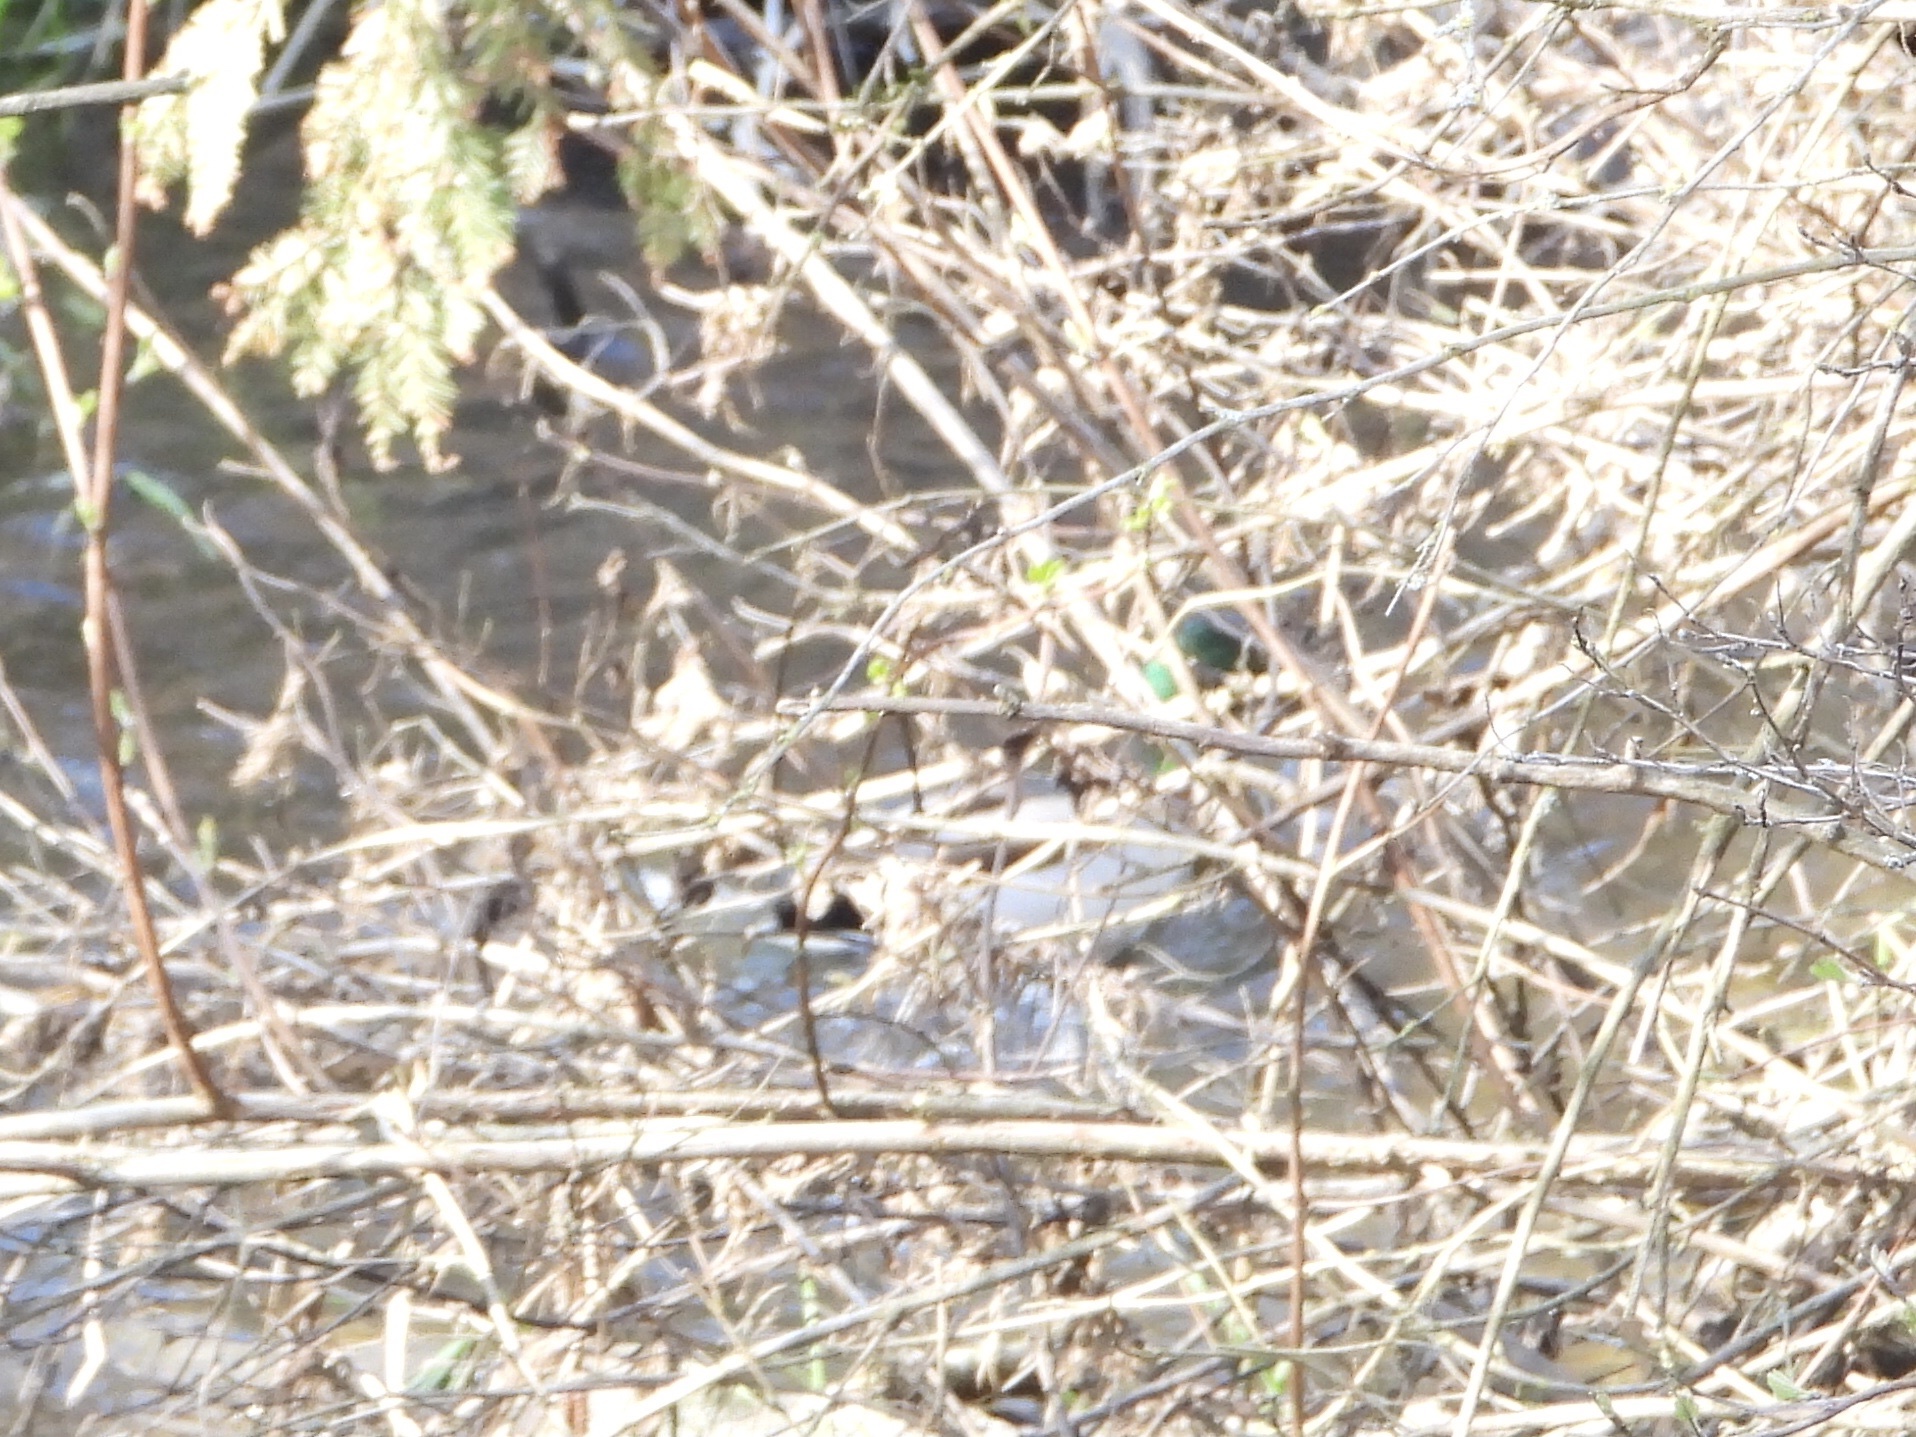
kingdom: Animalia
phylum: Chordata
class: Aves
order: Anseriformes
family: Anatidae
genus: Anas
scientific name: Anas platyrhynchos
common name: Mallard
